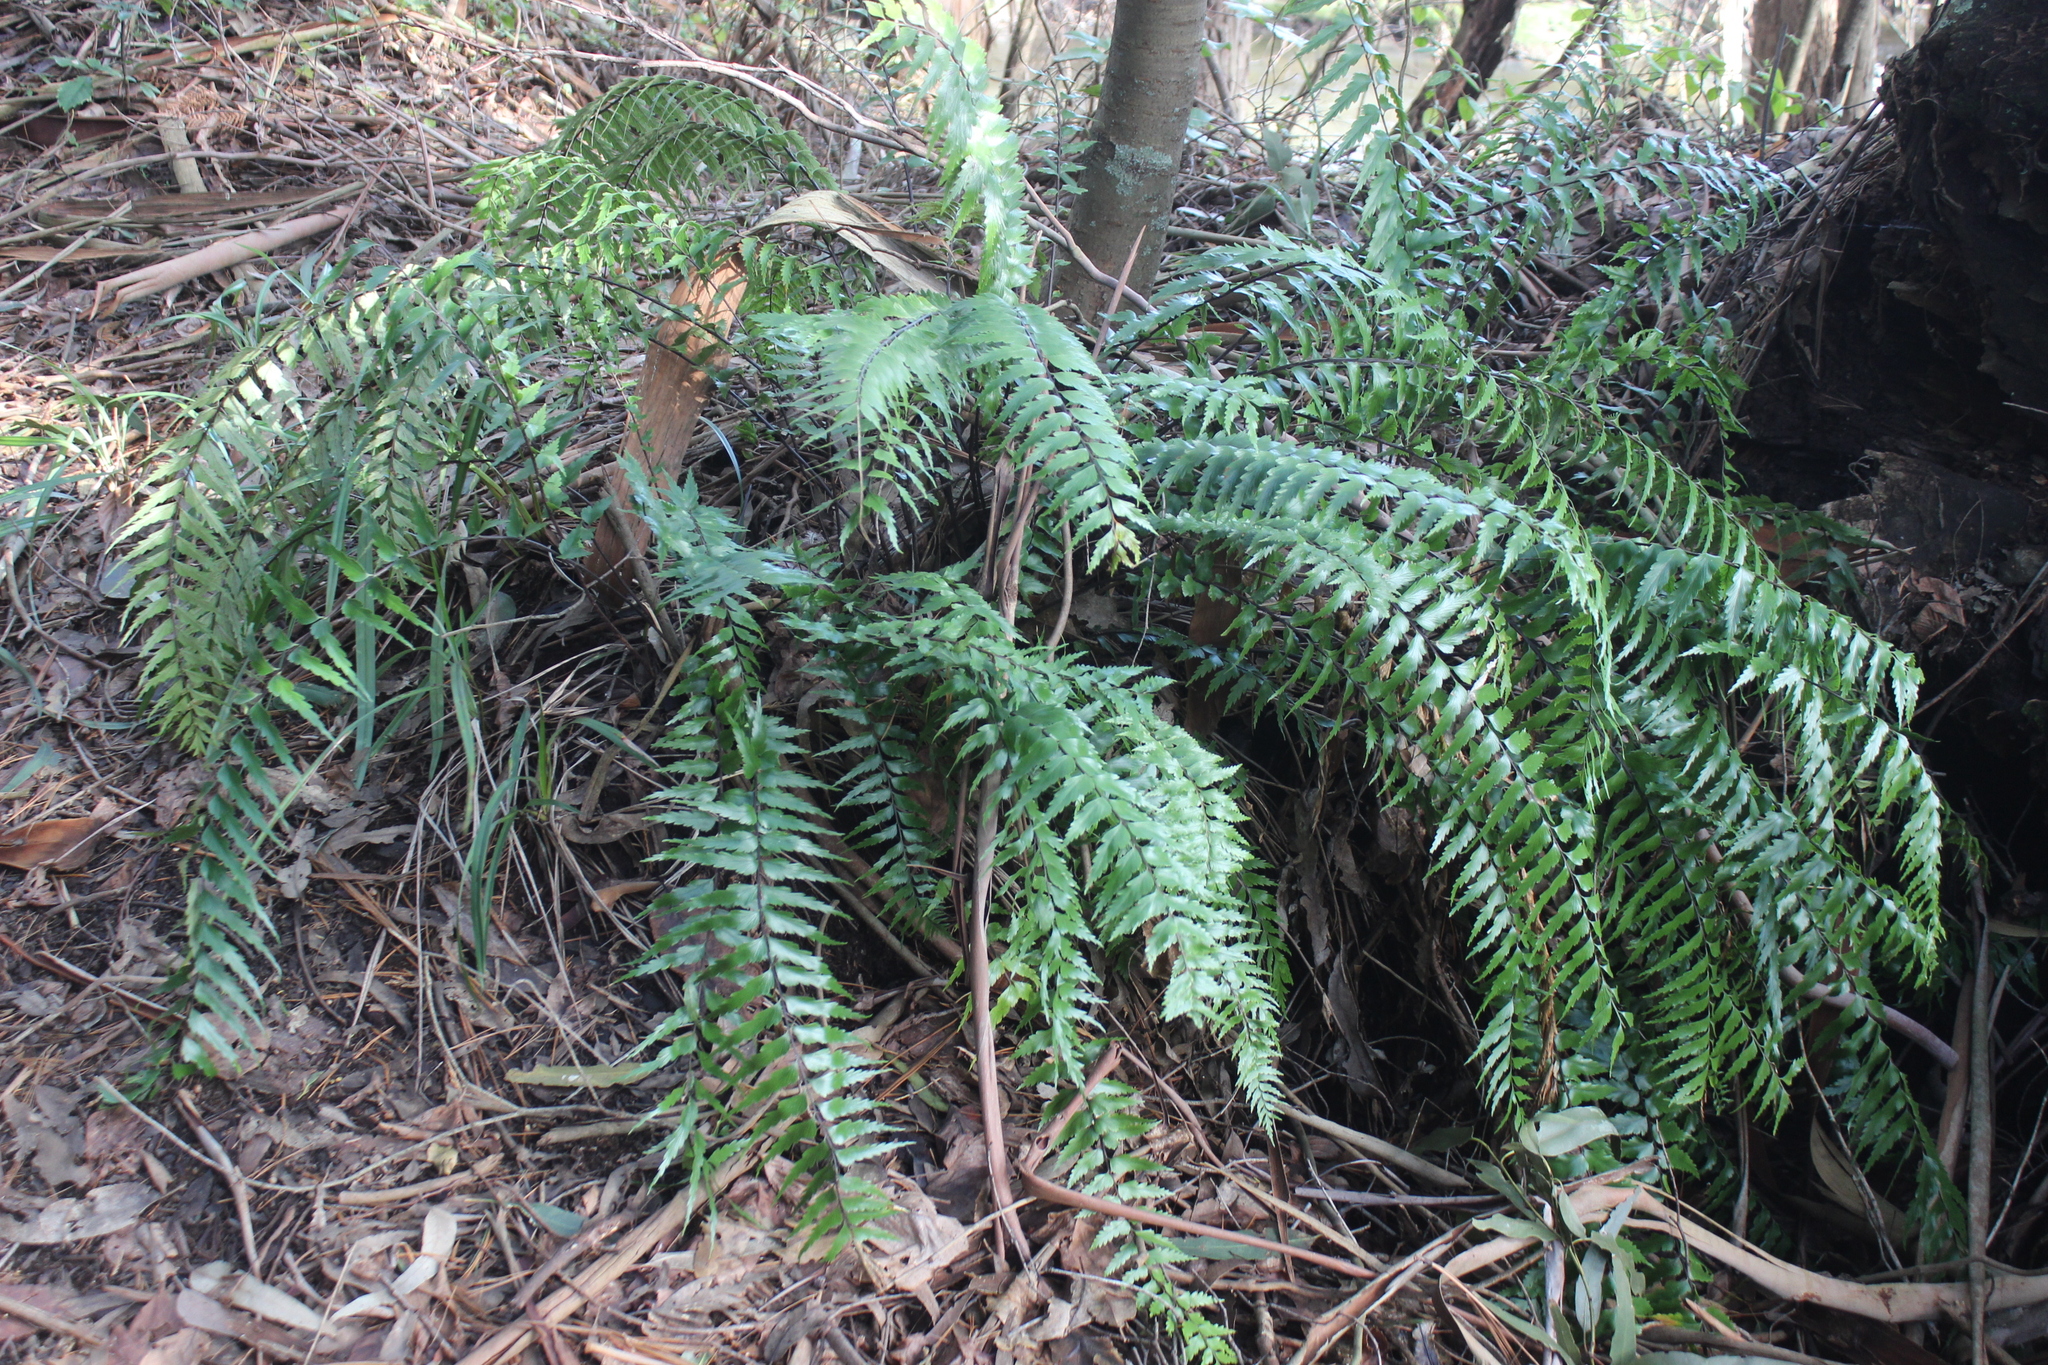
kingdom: Plantae
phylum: Tracheophyta
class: Polypodiopsida
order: Polypodiales
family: Aspleniaceae
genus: Asplenium
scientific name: Asplenium polyodon
